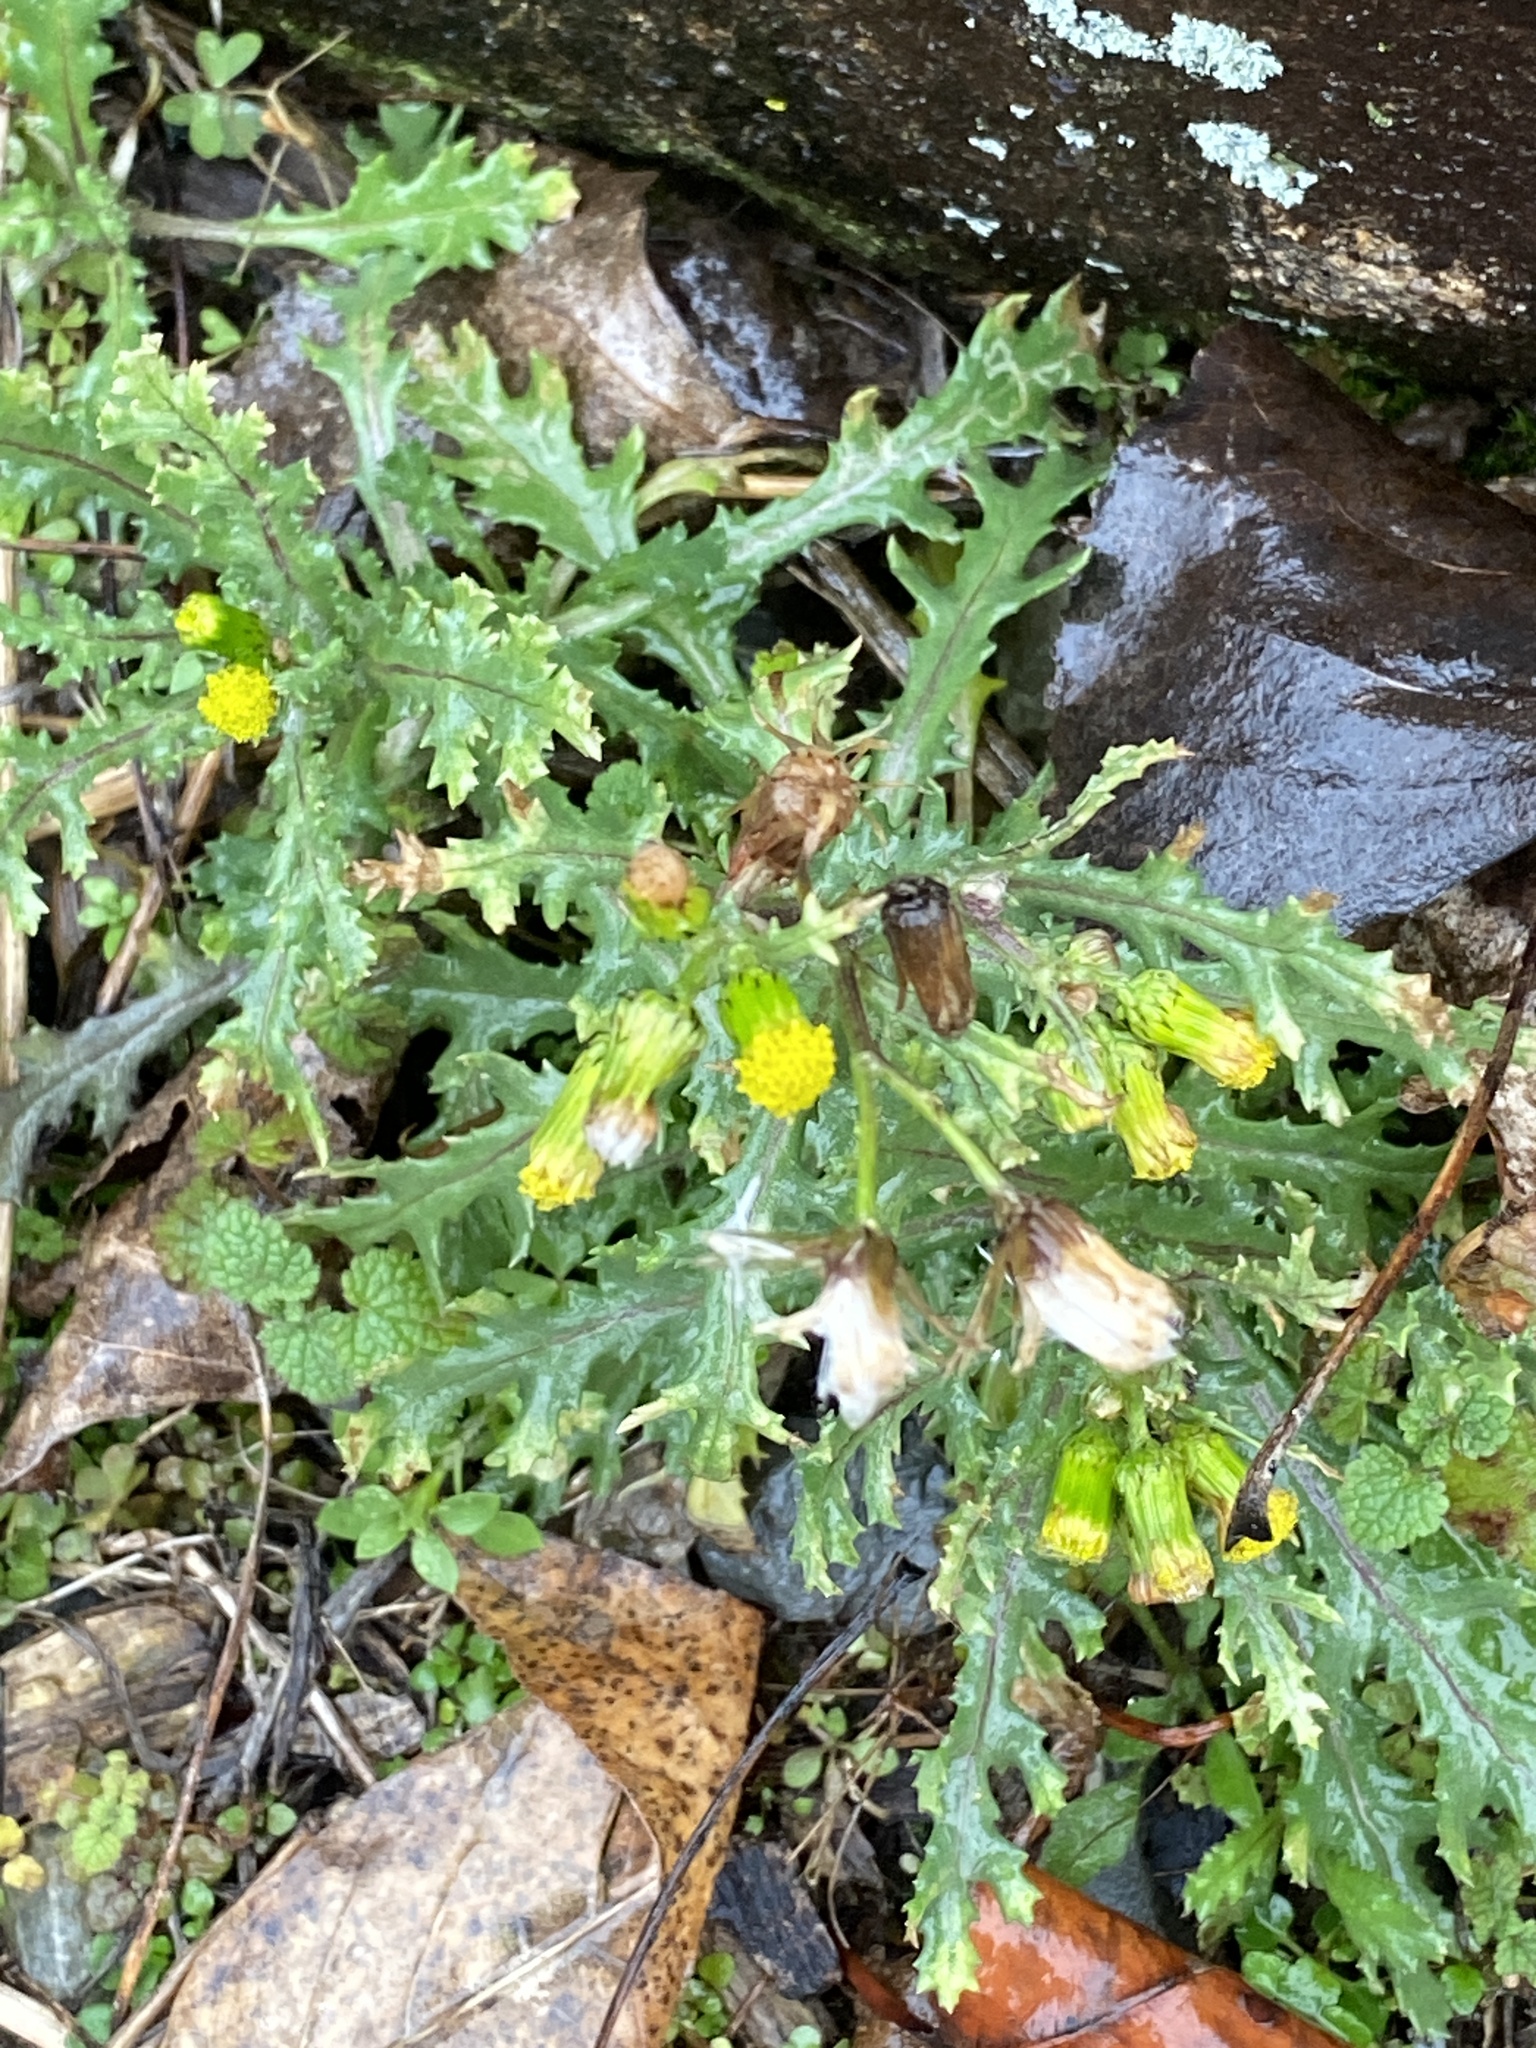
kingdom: Plantae
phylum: Tracheophyta
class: Magnoliopsida
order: Asterales
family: Asteraceae
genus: Senecio
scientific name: Senecio vulgaris
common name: Old-man-in-the-spring
